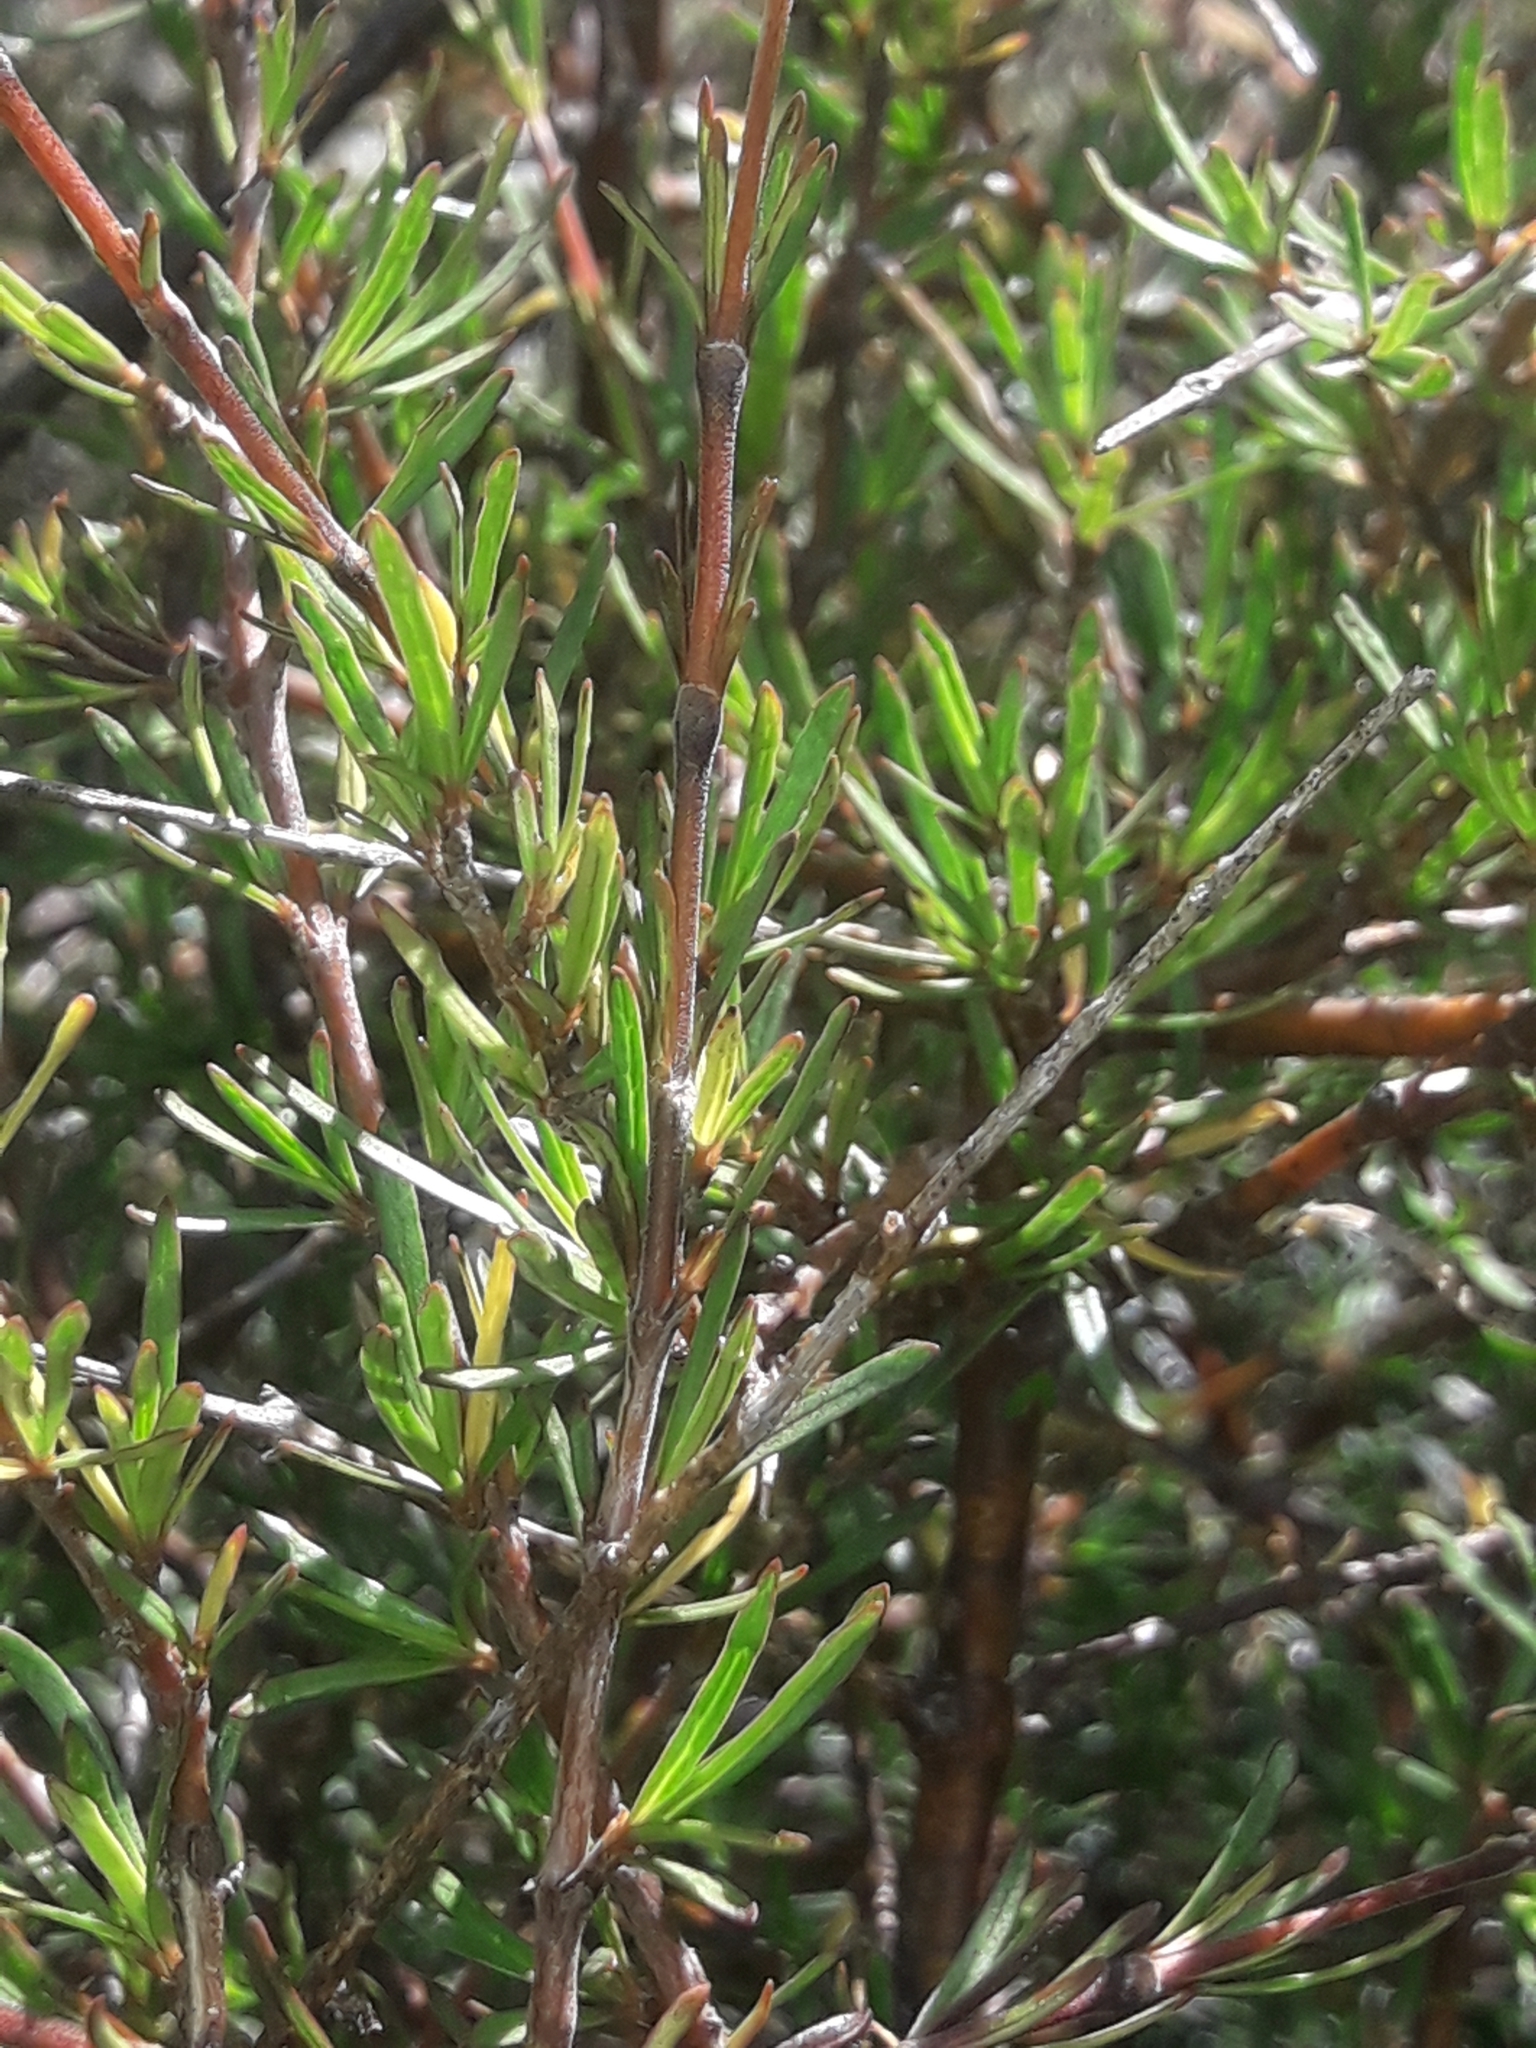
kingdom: Plantae
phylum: Tracheophyta
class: Magnoliopsida
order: Gentianales
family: Rubiaceae
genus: Coprosma
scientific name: Coprosma rugosa
